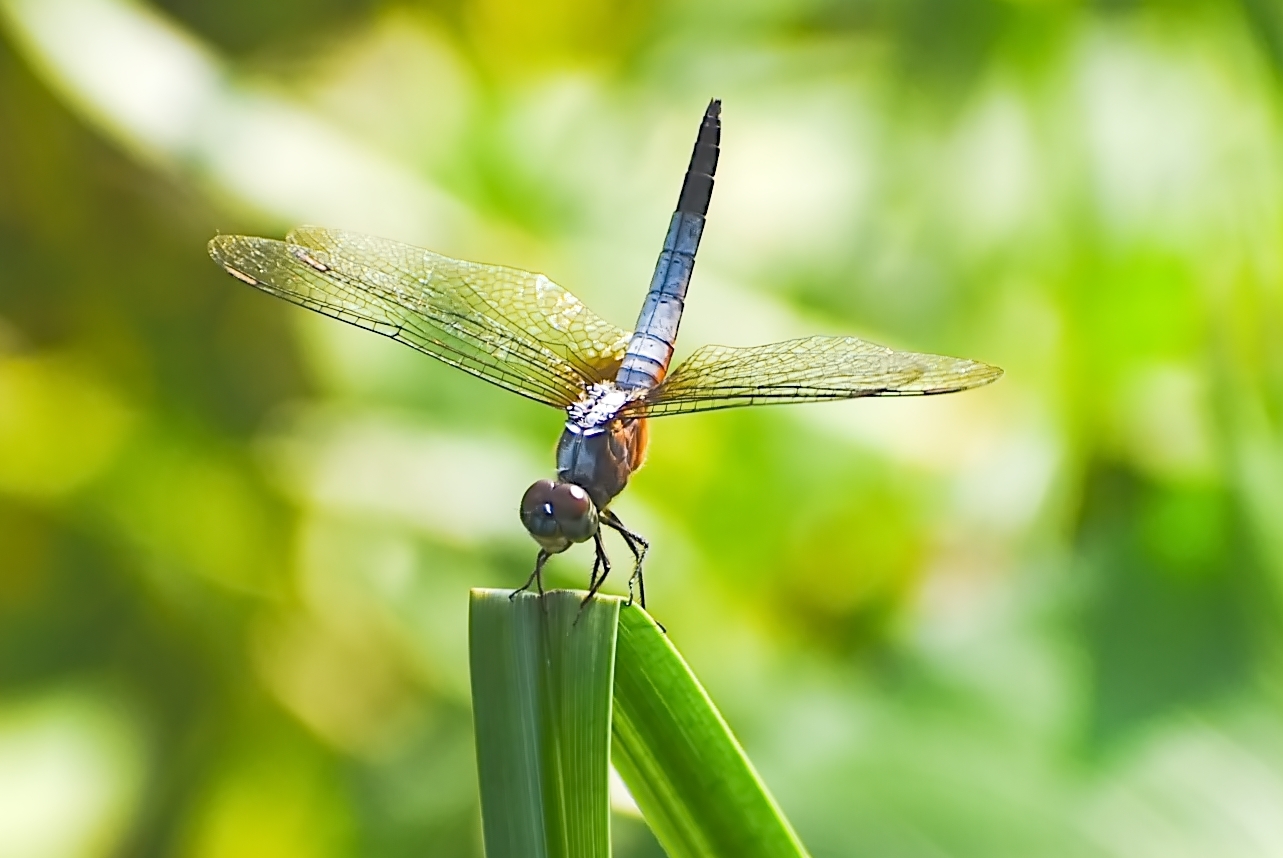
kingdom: Animalia
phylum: Arthropoda
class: Insecta
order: Odonata
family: Libellulidae
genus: Brachydiplax
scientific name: Brachydiplax chalybea
